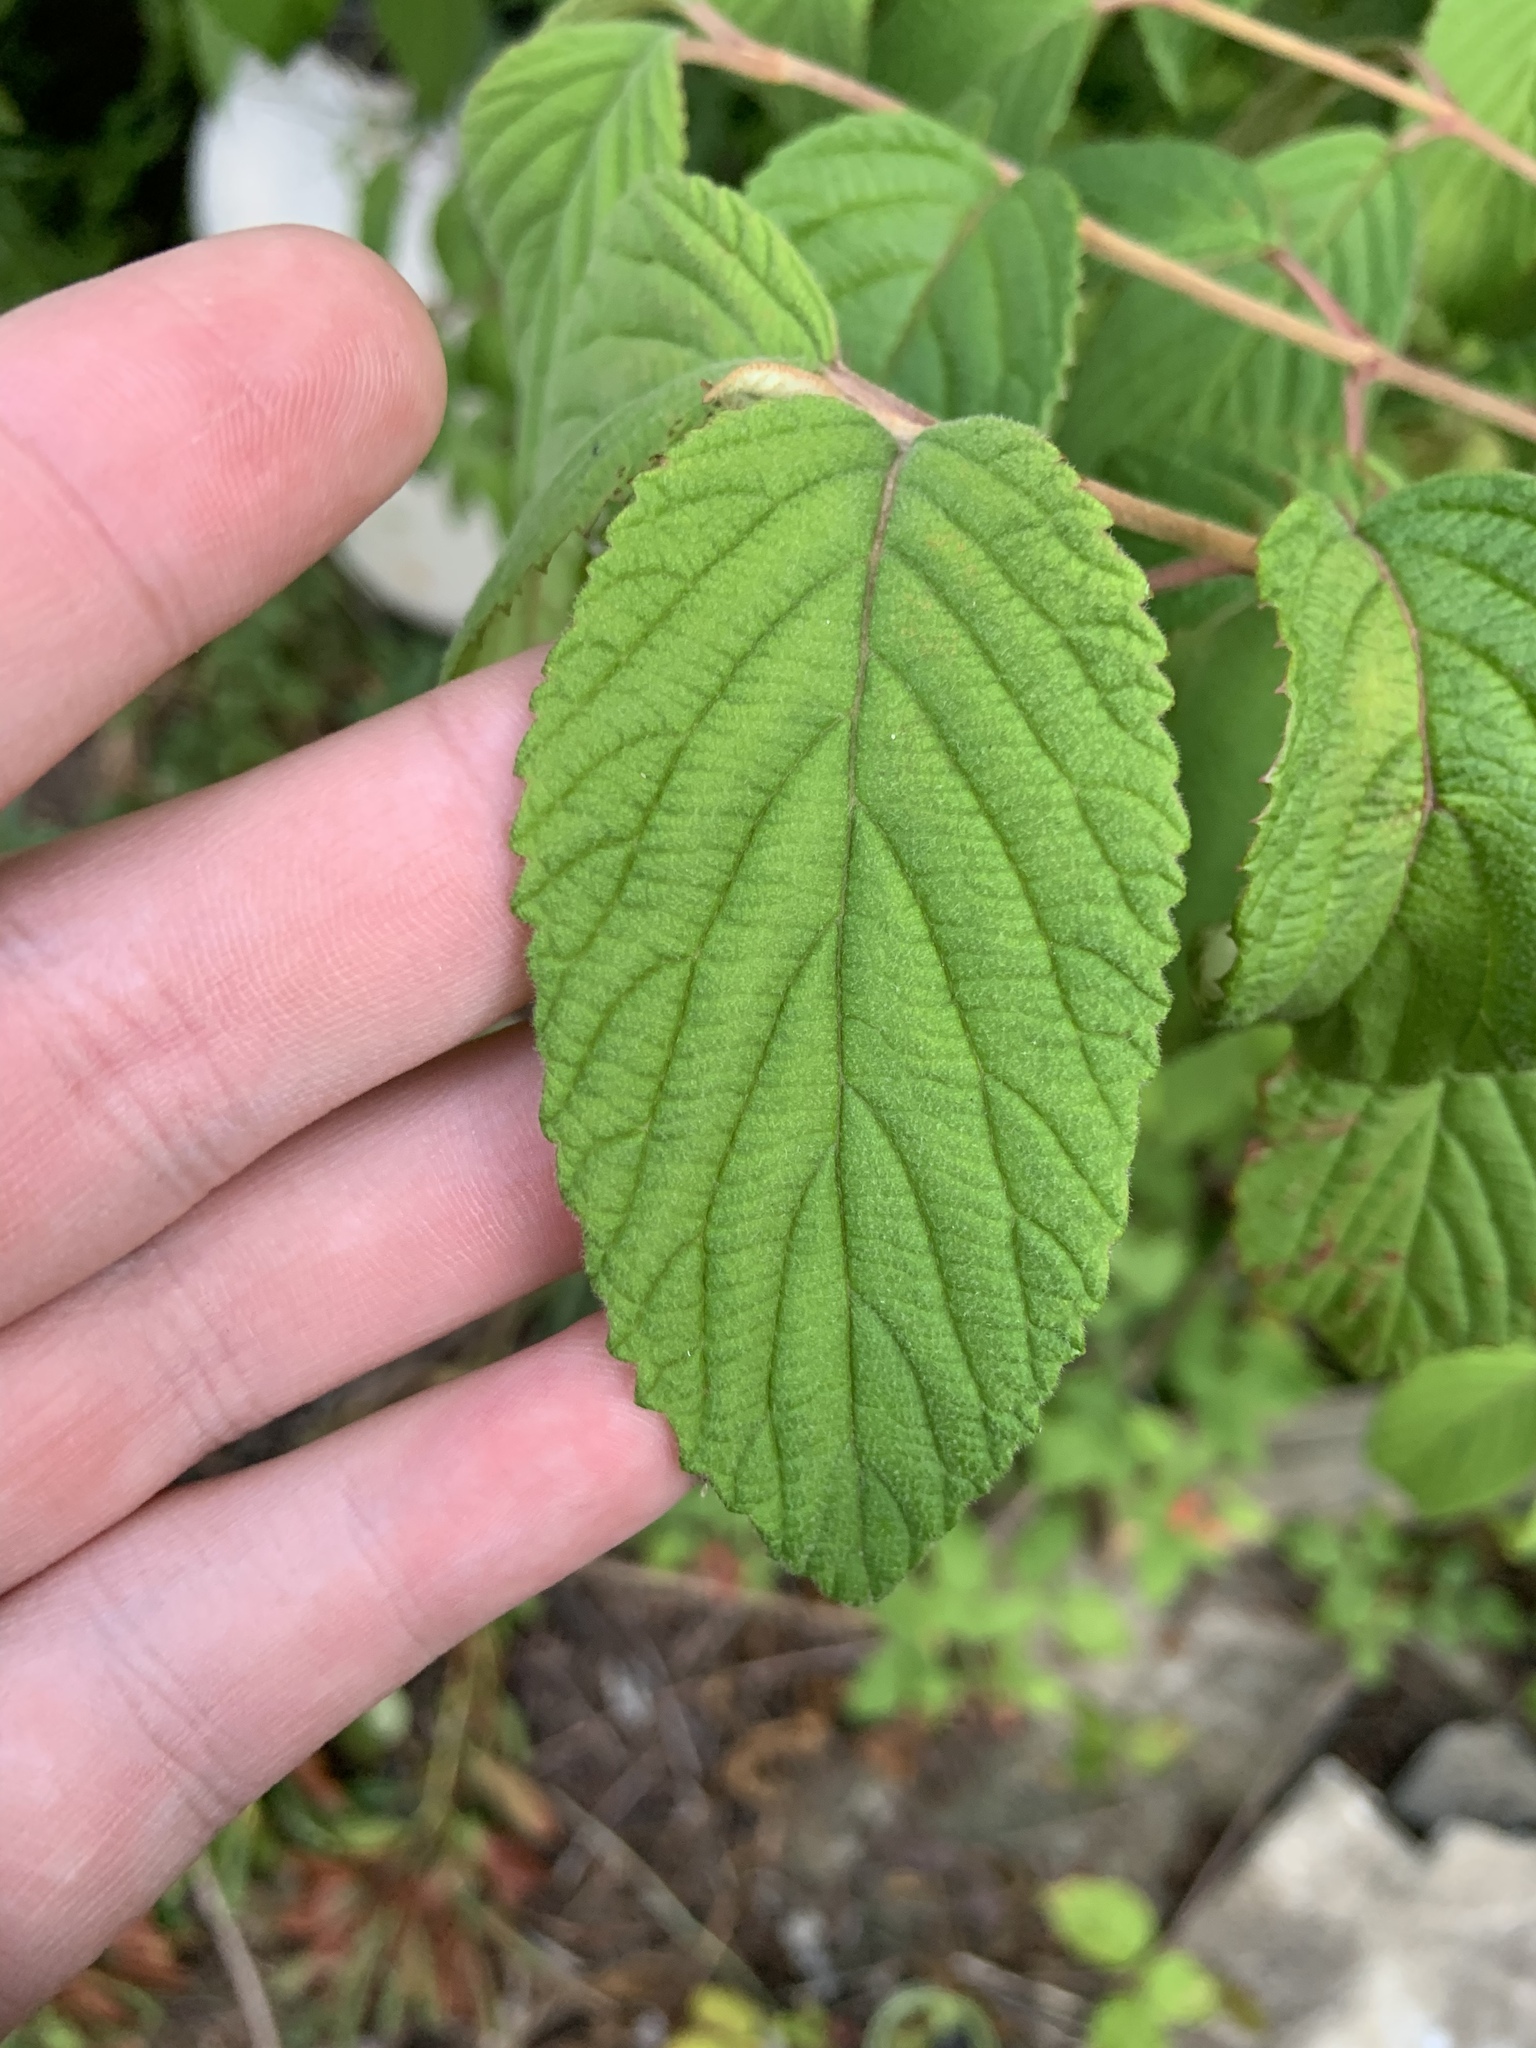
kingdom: Plantae
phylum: Tracheophyta
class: Magnoliopsida
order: Dipsacales
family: Viburnaceae
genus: Viburnum
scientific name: Viburnum plicatum
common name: Japanese snowball
